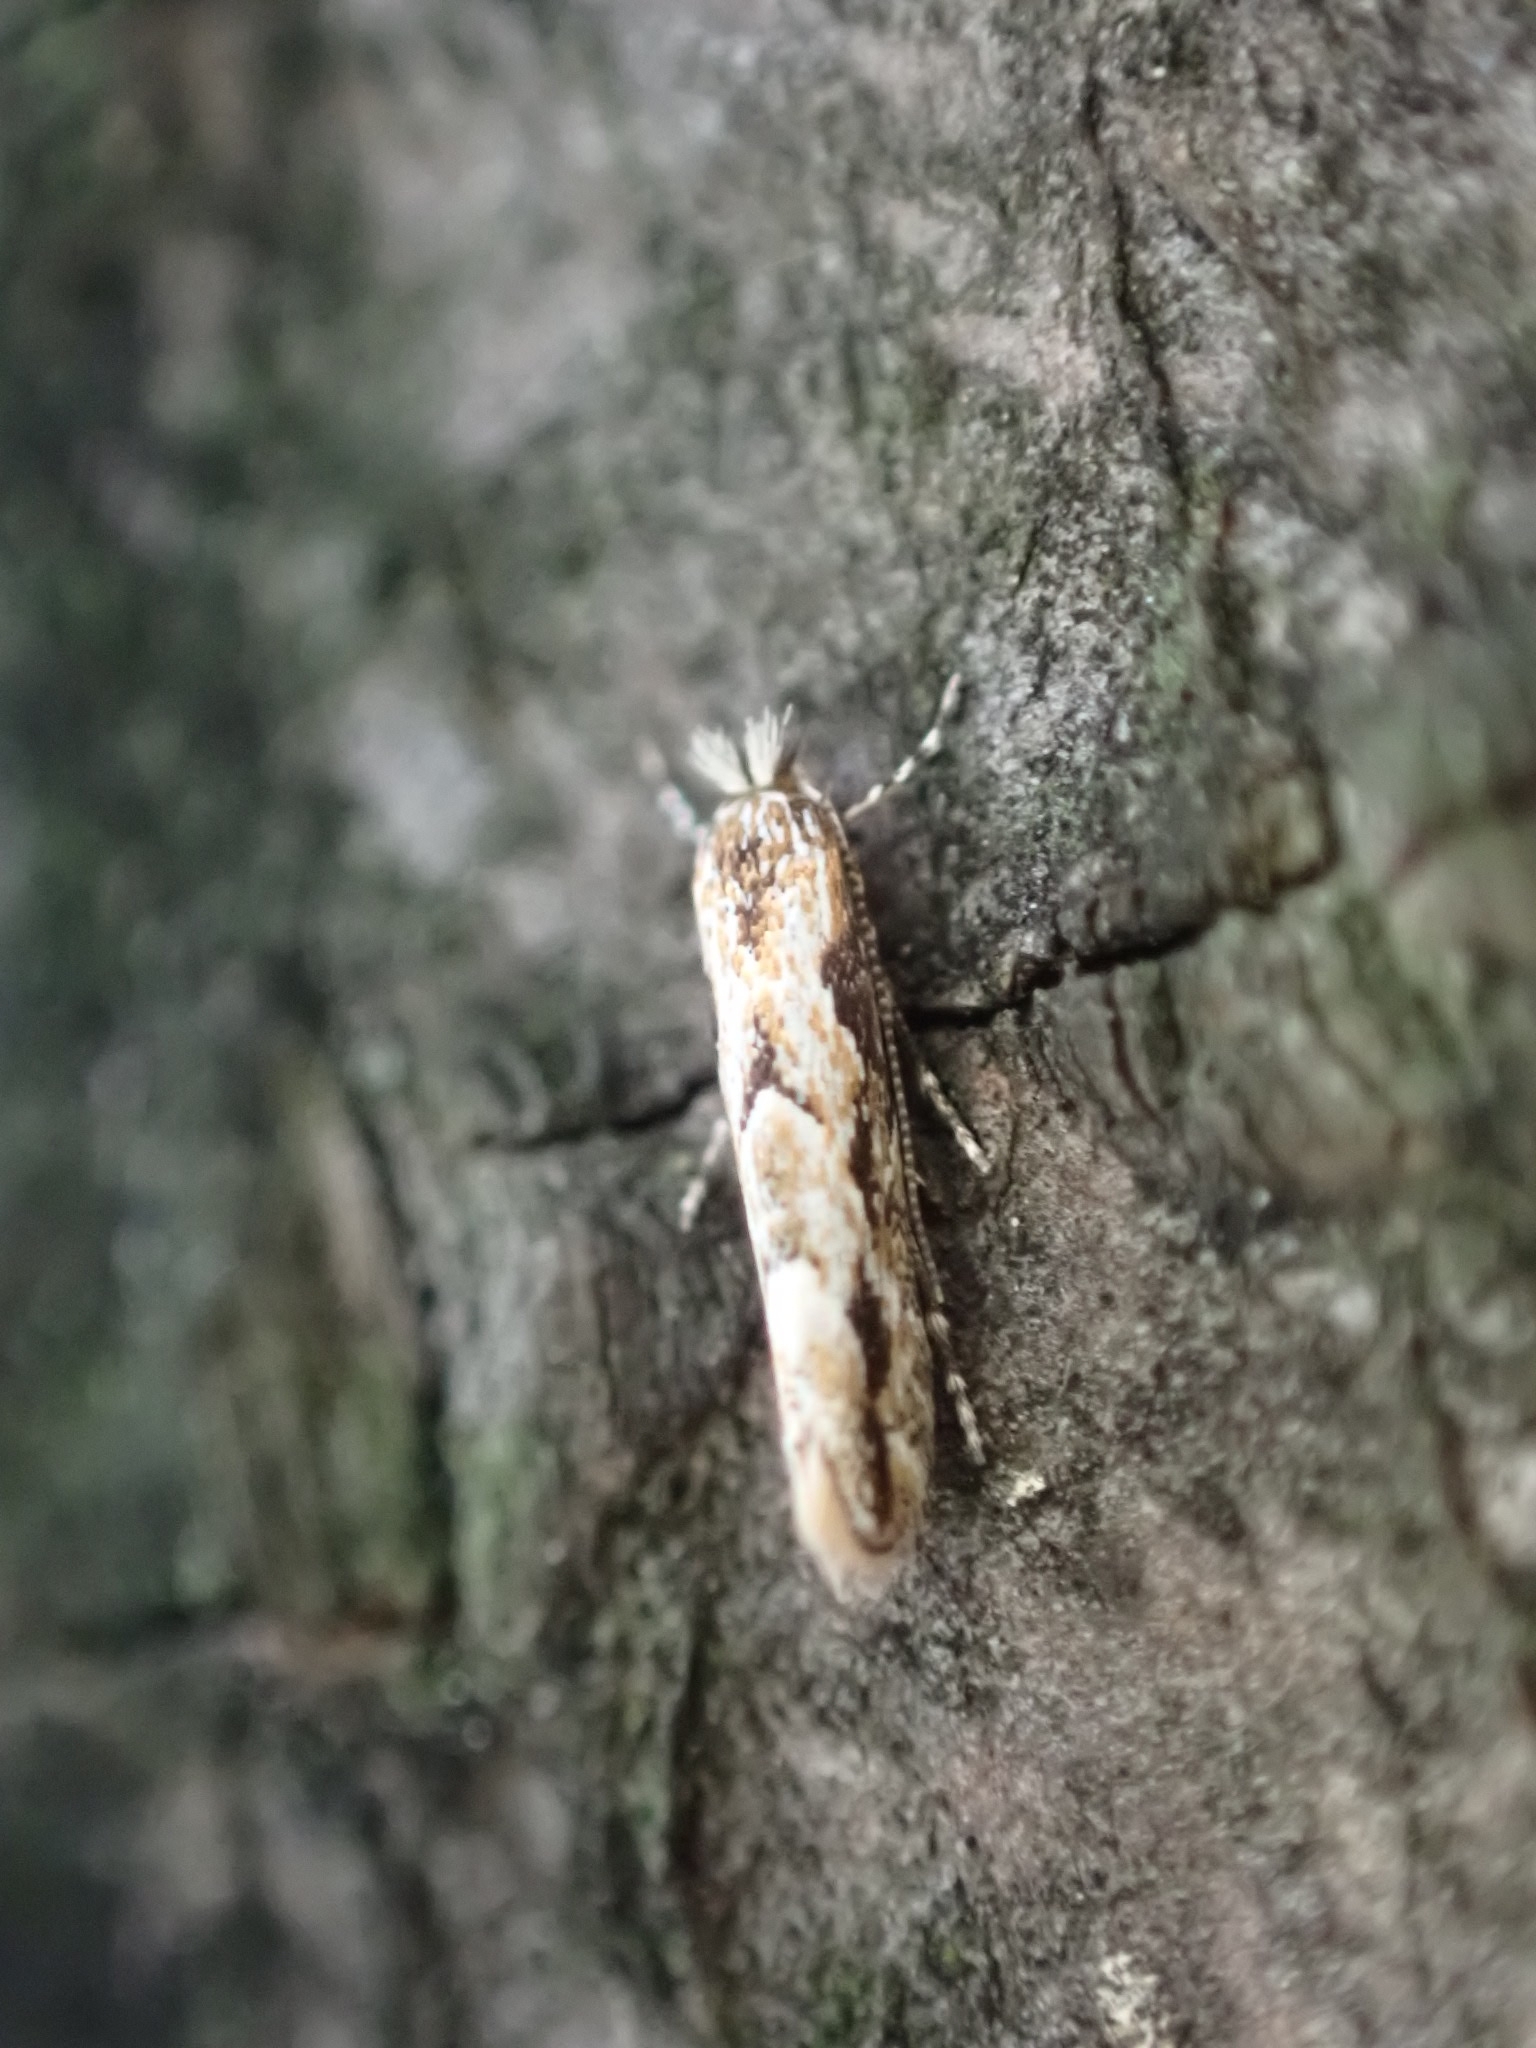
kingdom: Animalia
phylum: Arthropoda
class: Insecta
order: Lepidoptera
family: Gracillariidae
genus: Phyllonorycter
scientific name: Phyllonorycter issikii
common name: Linden midget
